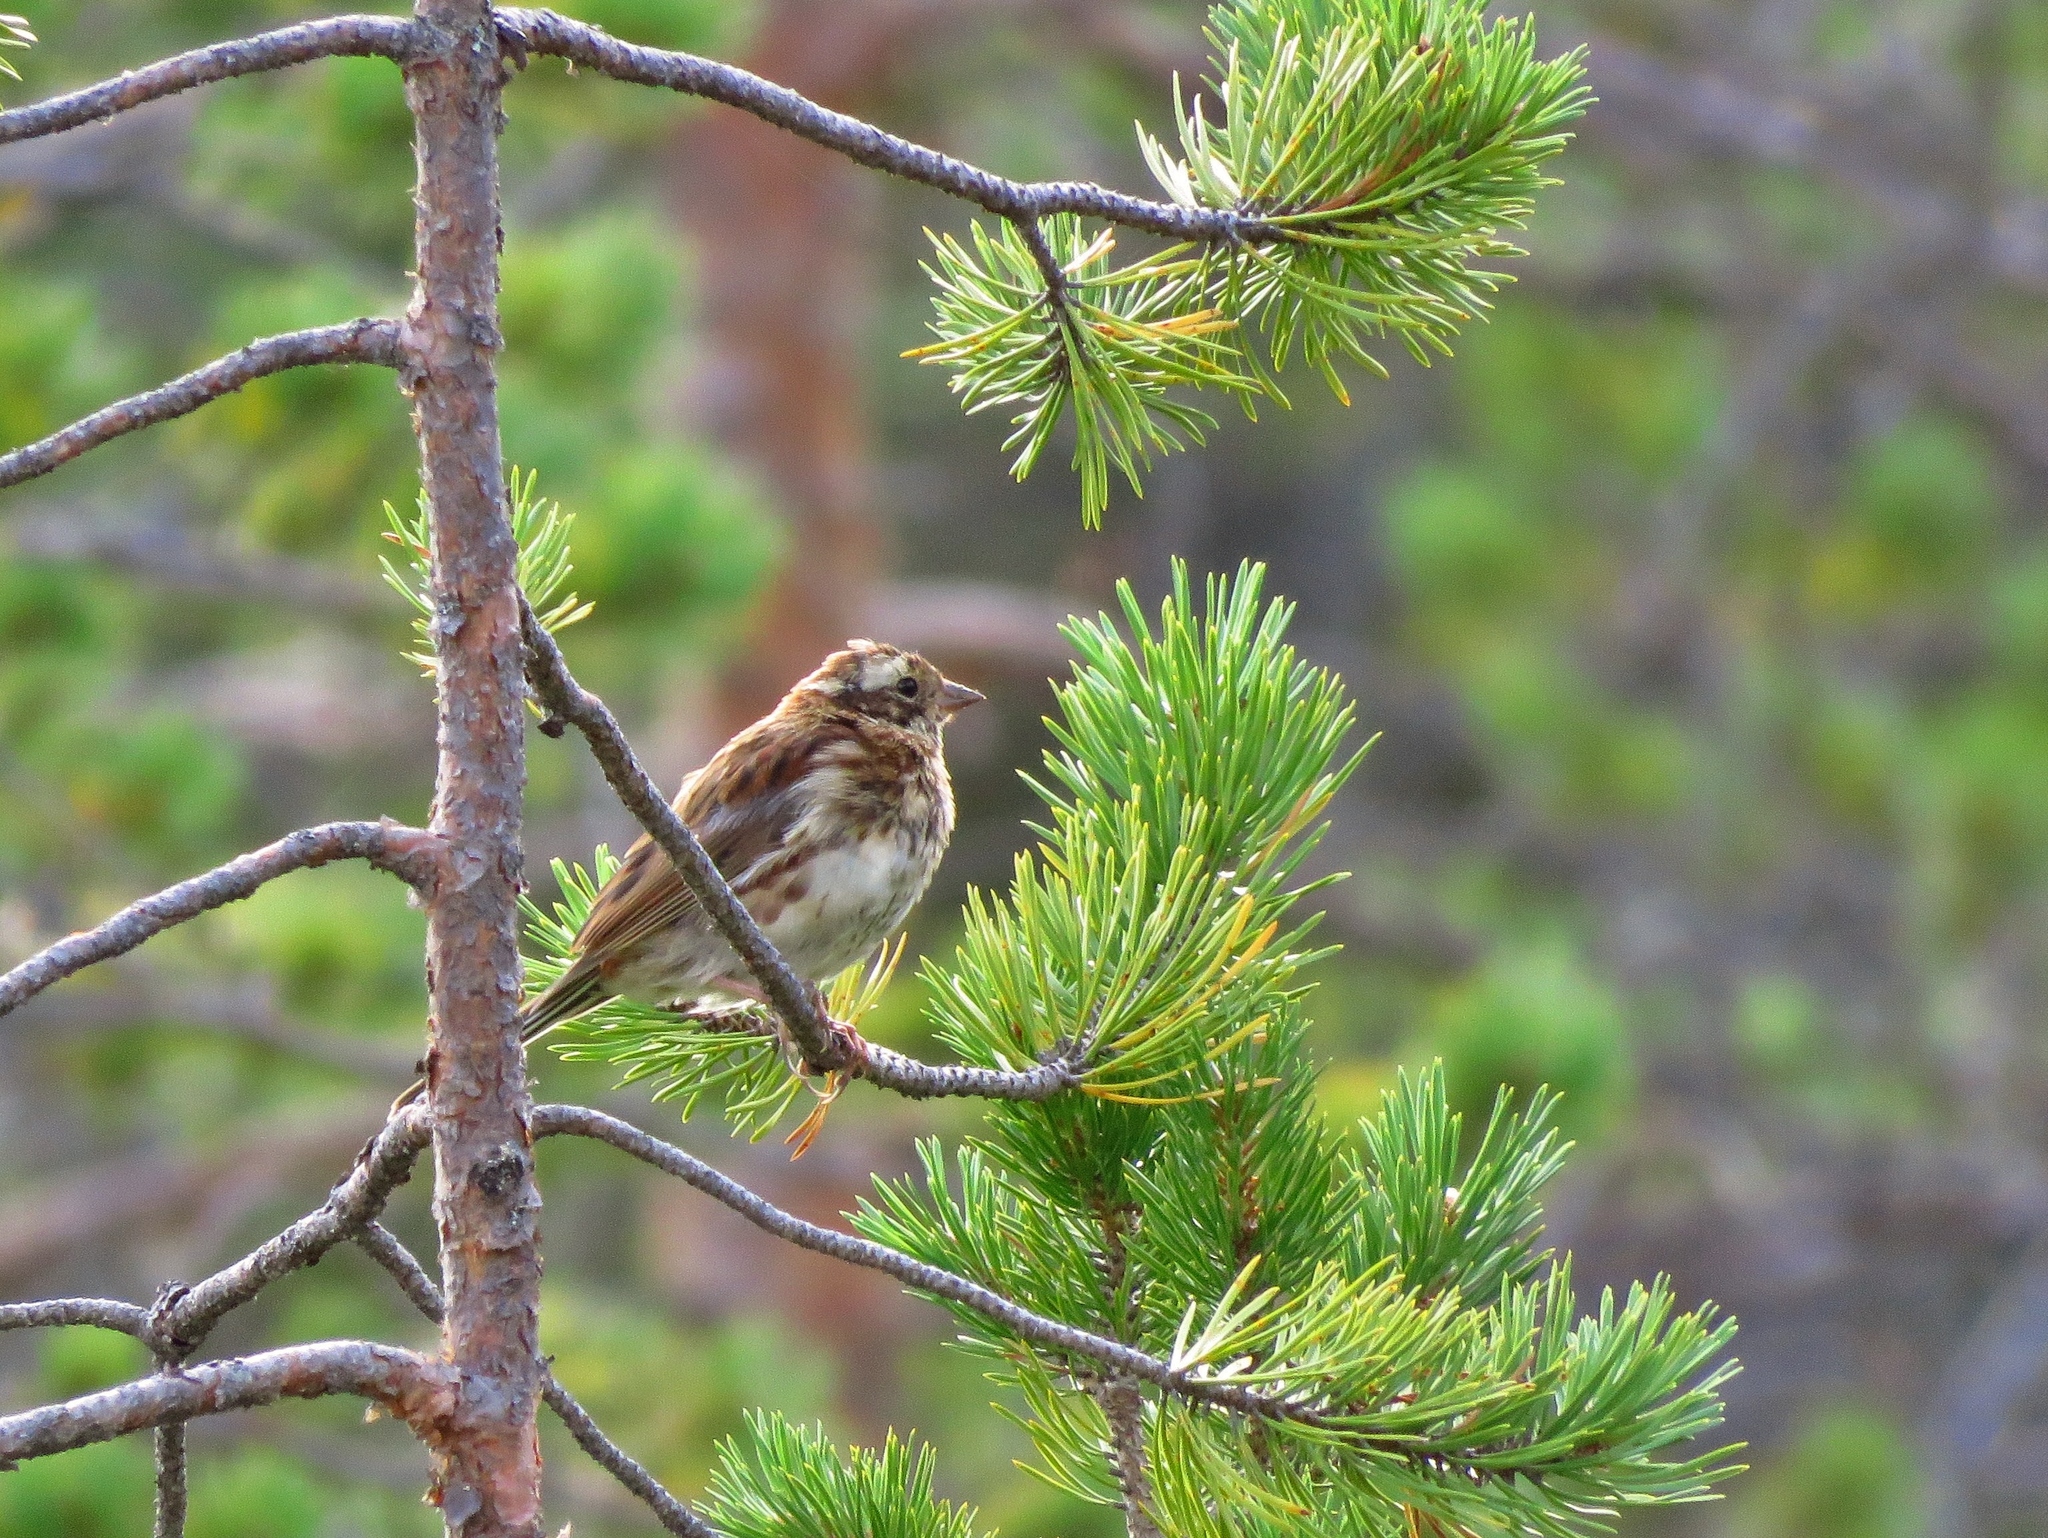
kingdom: Animalia
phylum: Chordata
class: Aves
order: Passeriformes
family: Emberizidae
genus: Emberiza
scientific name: Emberiza rustica
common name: Rustic bunting
